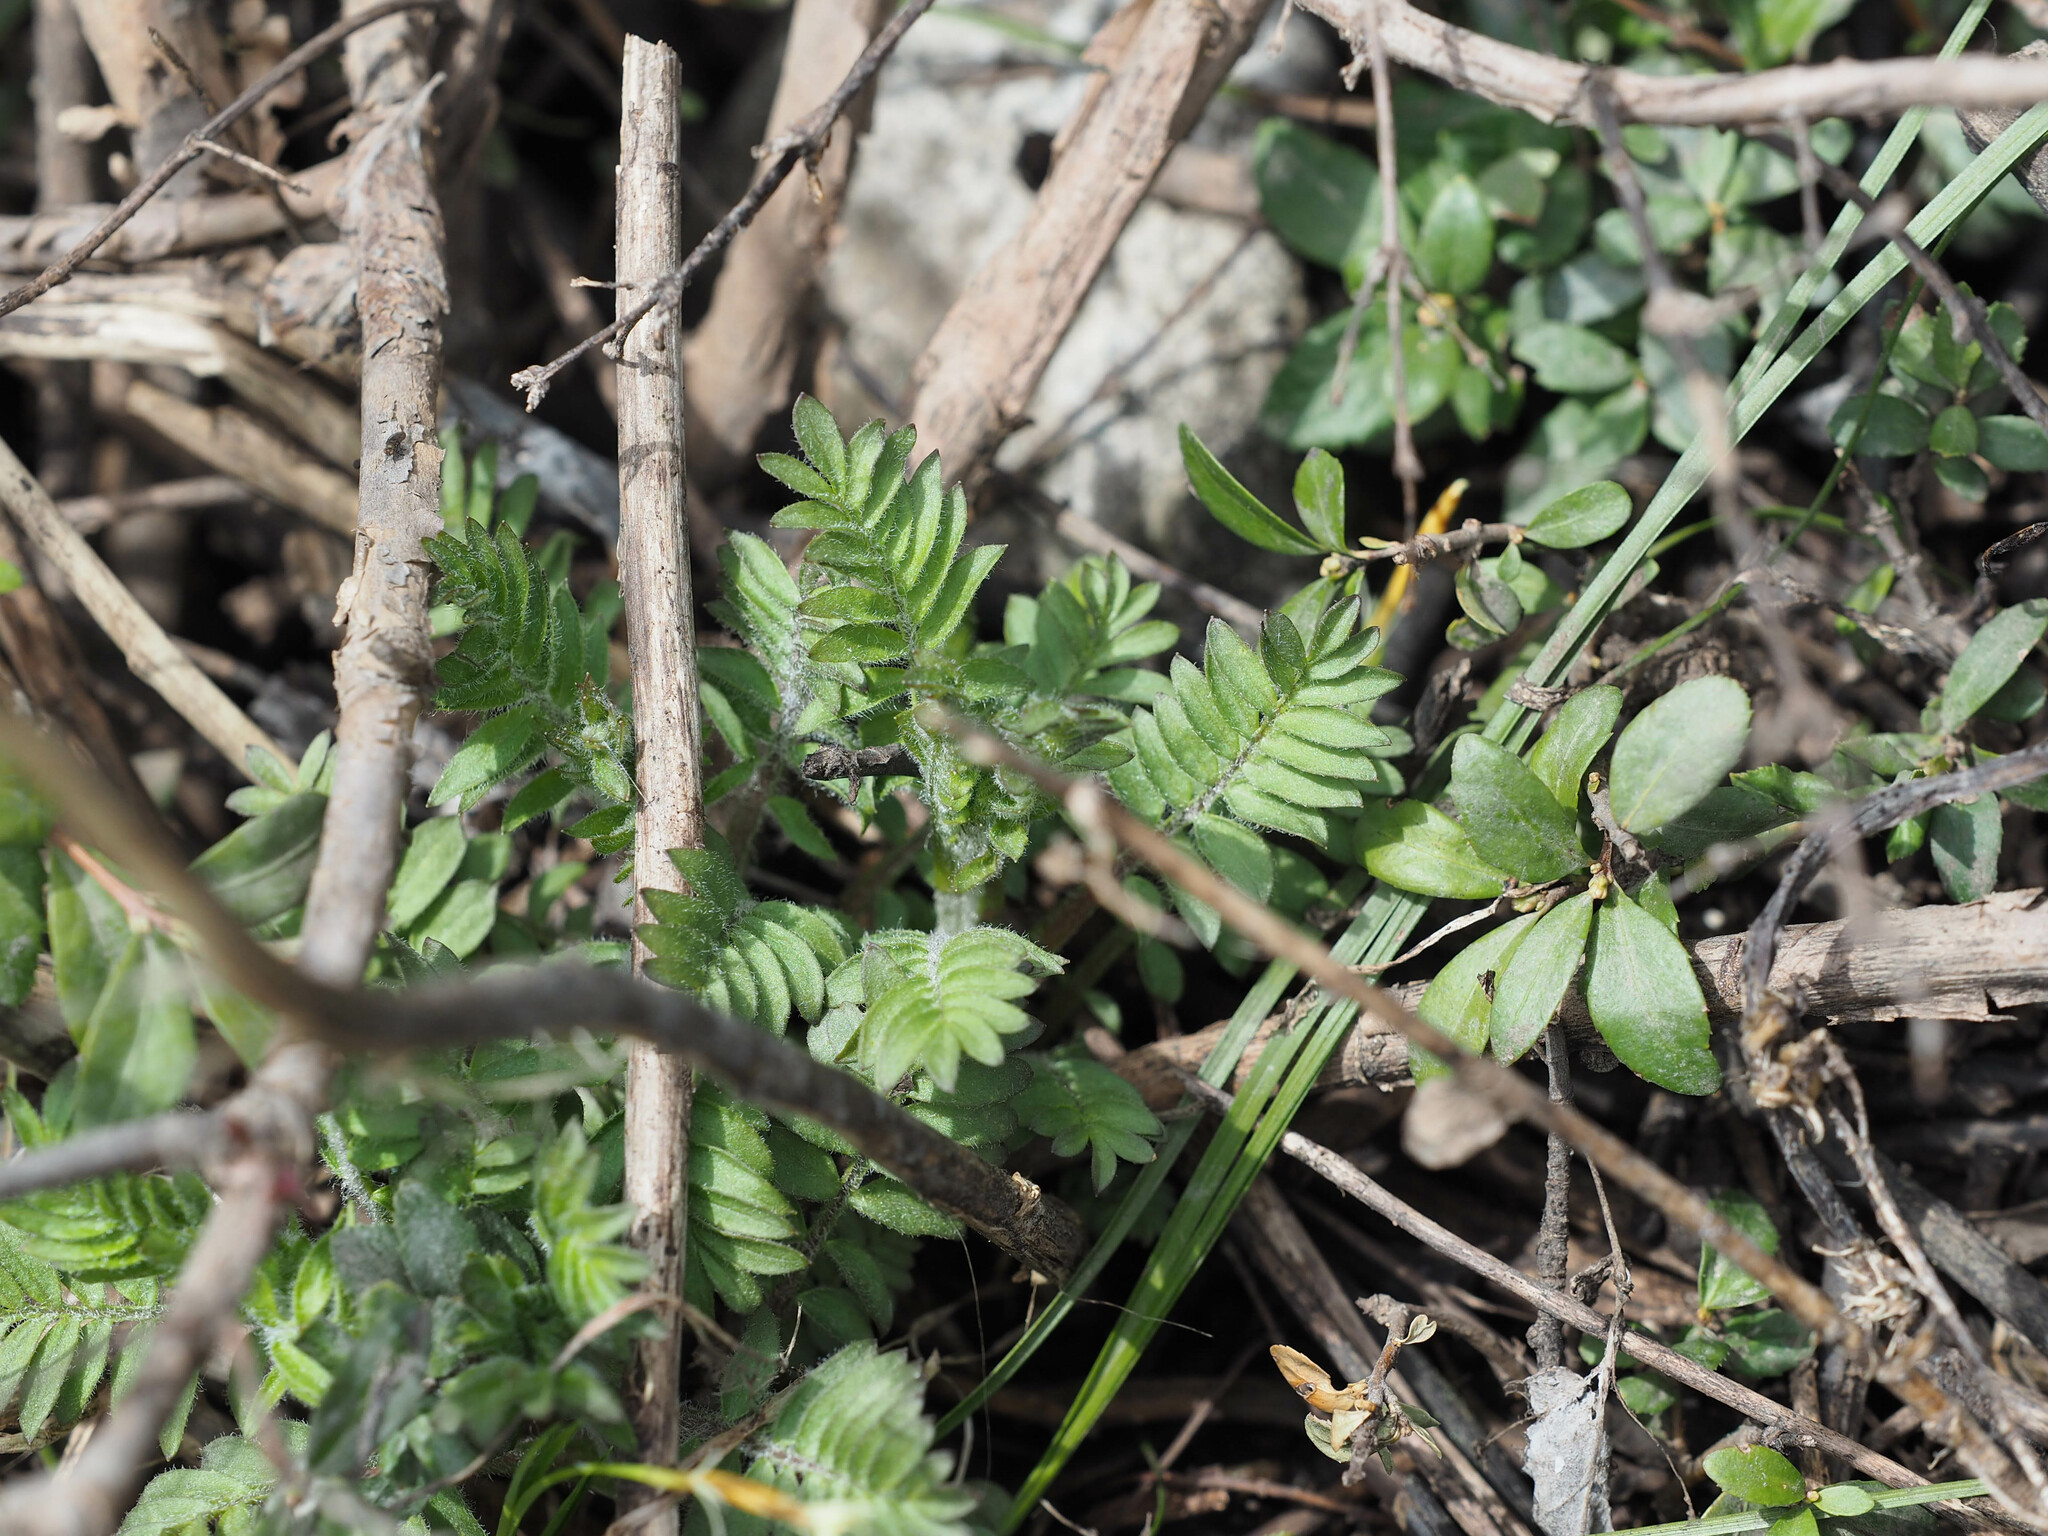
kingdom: Plantae
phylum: Tracheophyta
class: Magnoliopsida
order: Ericales
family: Polemoniaceae
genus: Polemonium
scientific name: Polemonium foliosissimum
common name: Leafy jacob's-ladder
